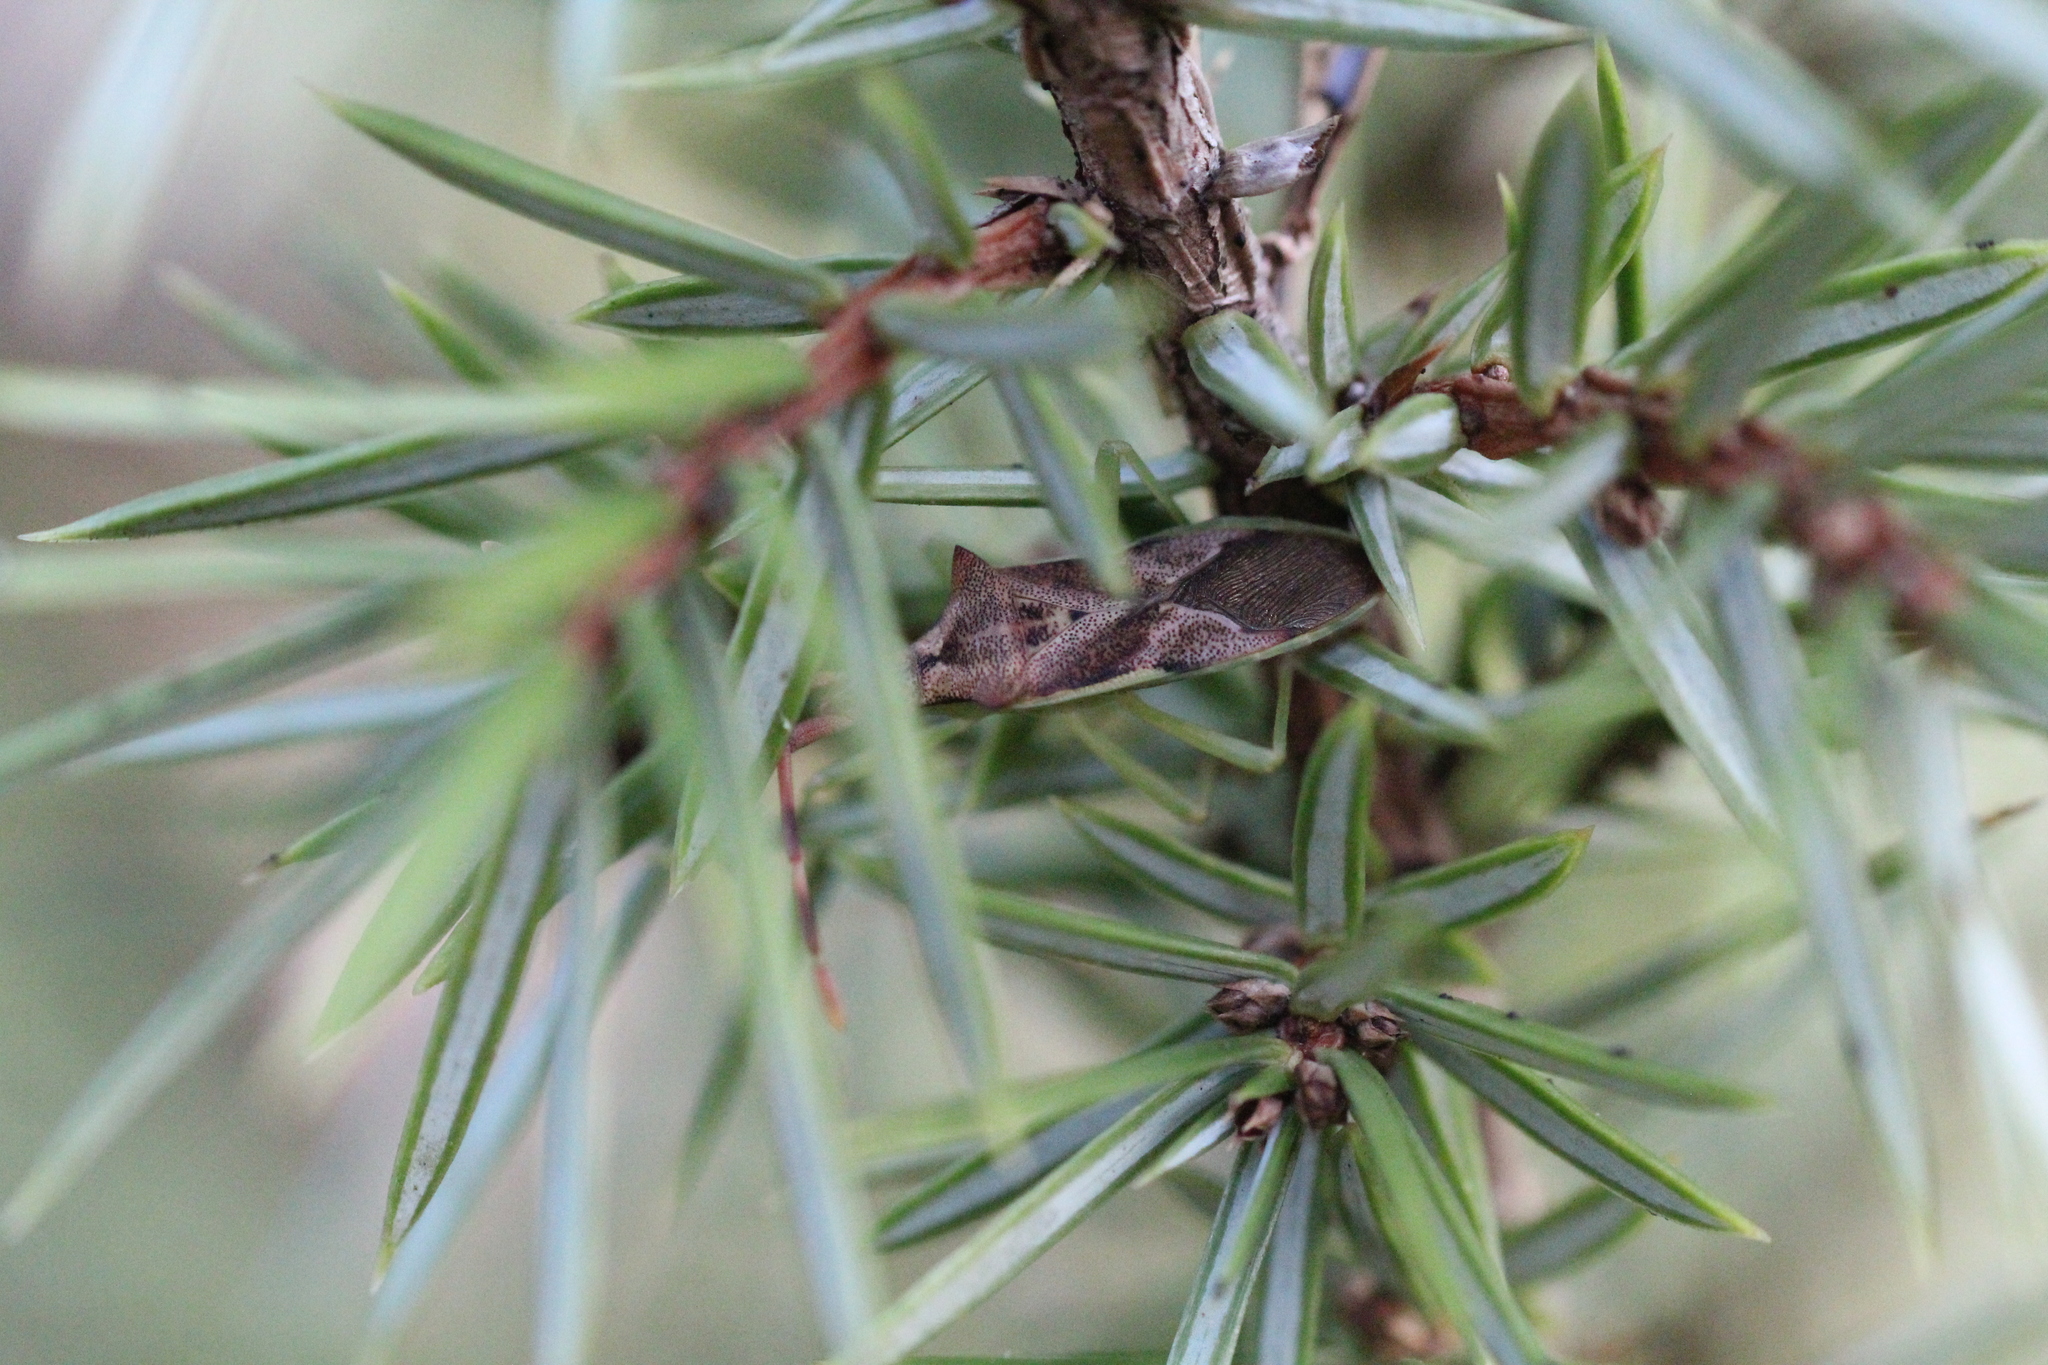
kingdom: Animalia
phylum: Arthropoda
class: Insecta
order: Hemiptera
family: Coreidae
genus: Gonocerus
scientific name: Gonocerus juniperi
